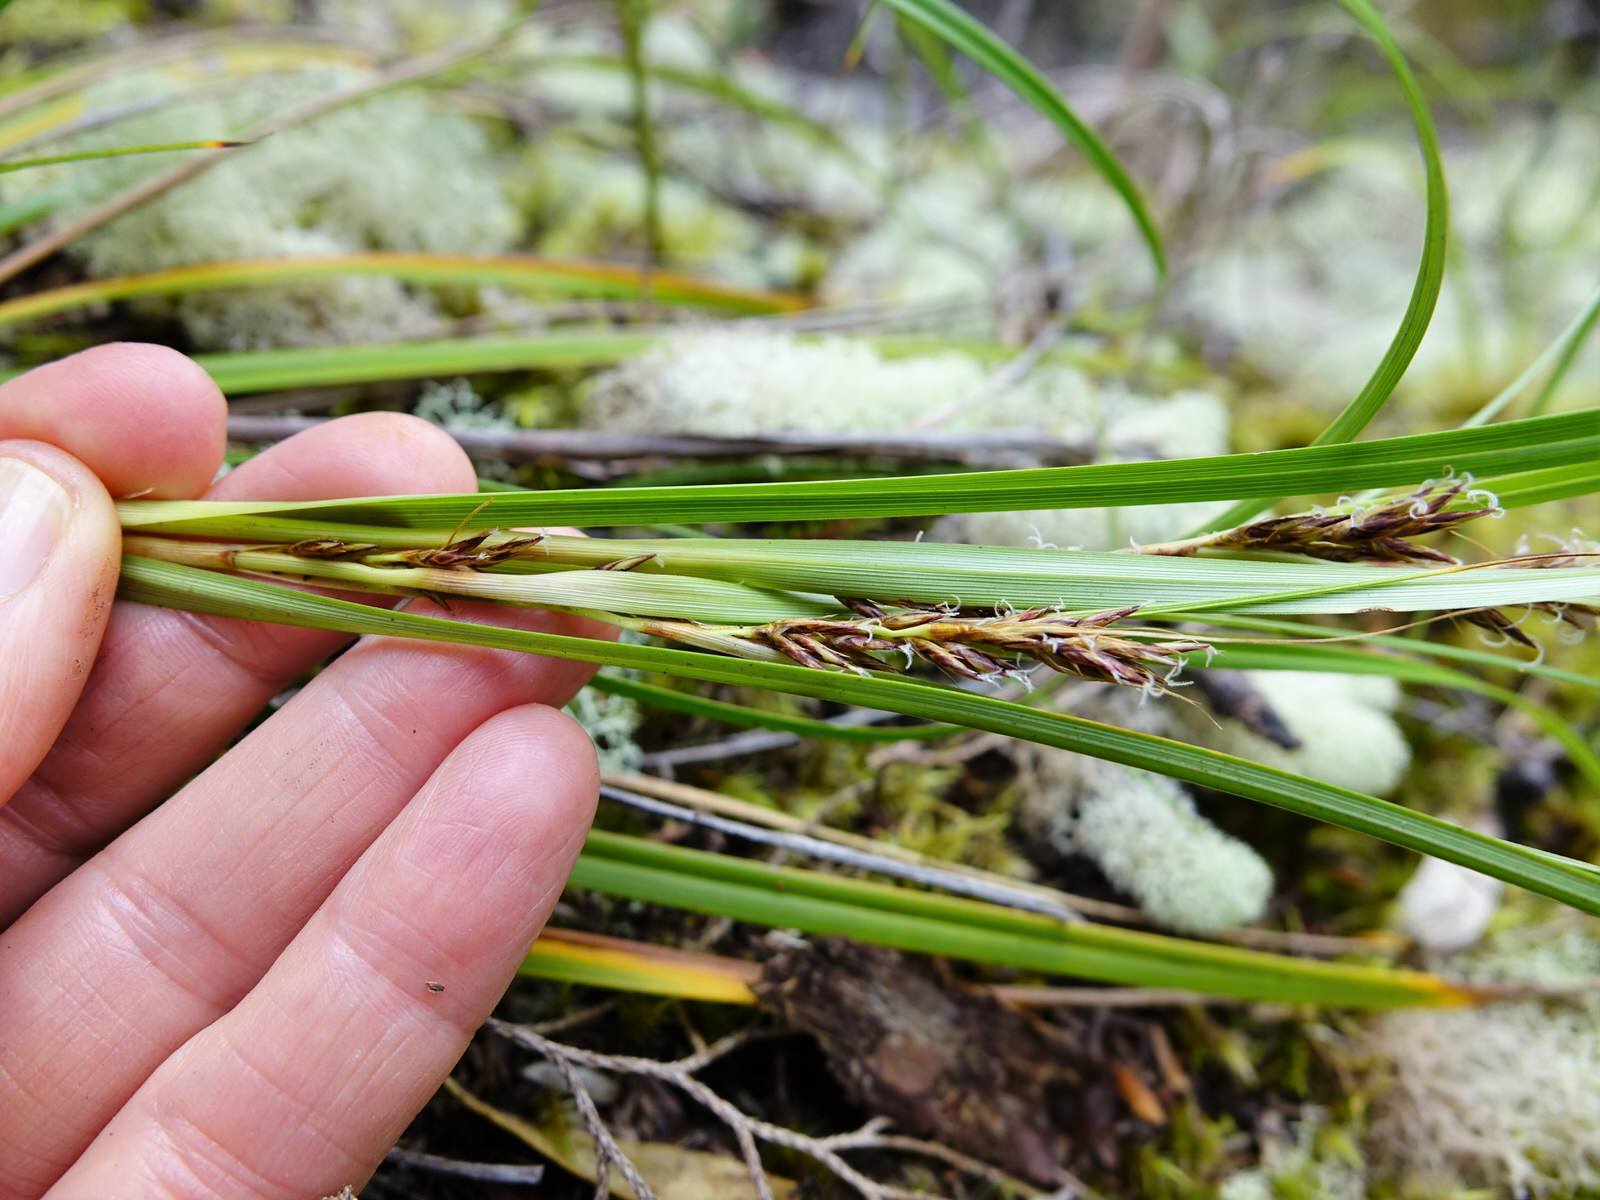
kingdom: Plantae
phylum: Tracheophyta
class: Liliopsida
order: Poales
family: Cyperaceae
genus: Morelotia
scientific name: Morelotia affinis
